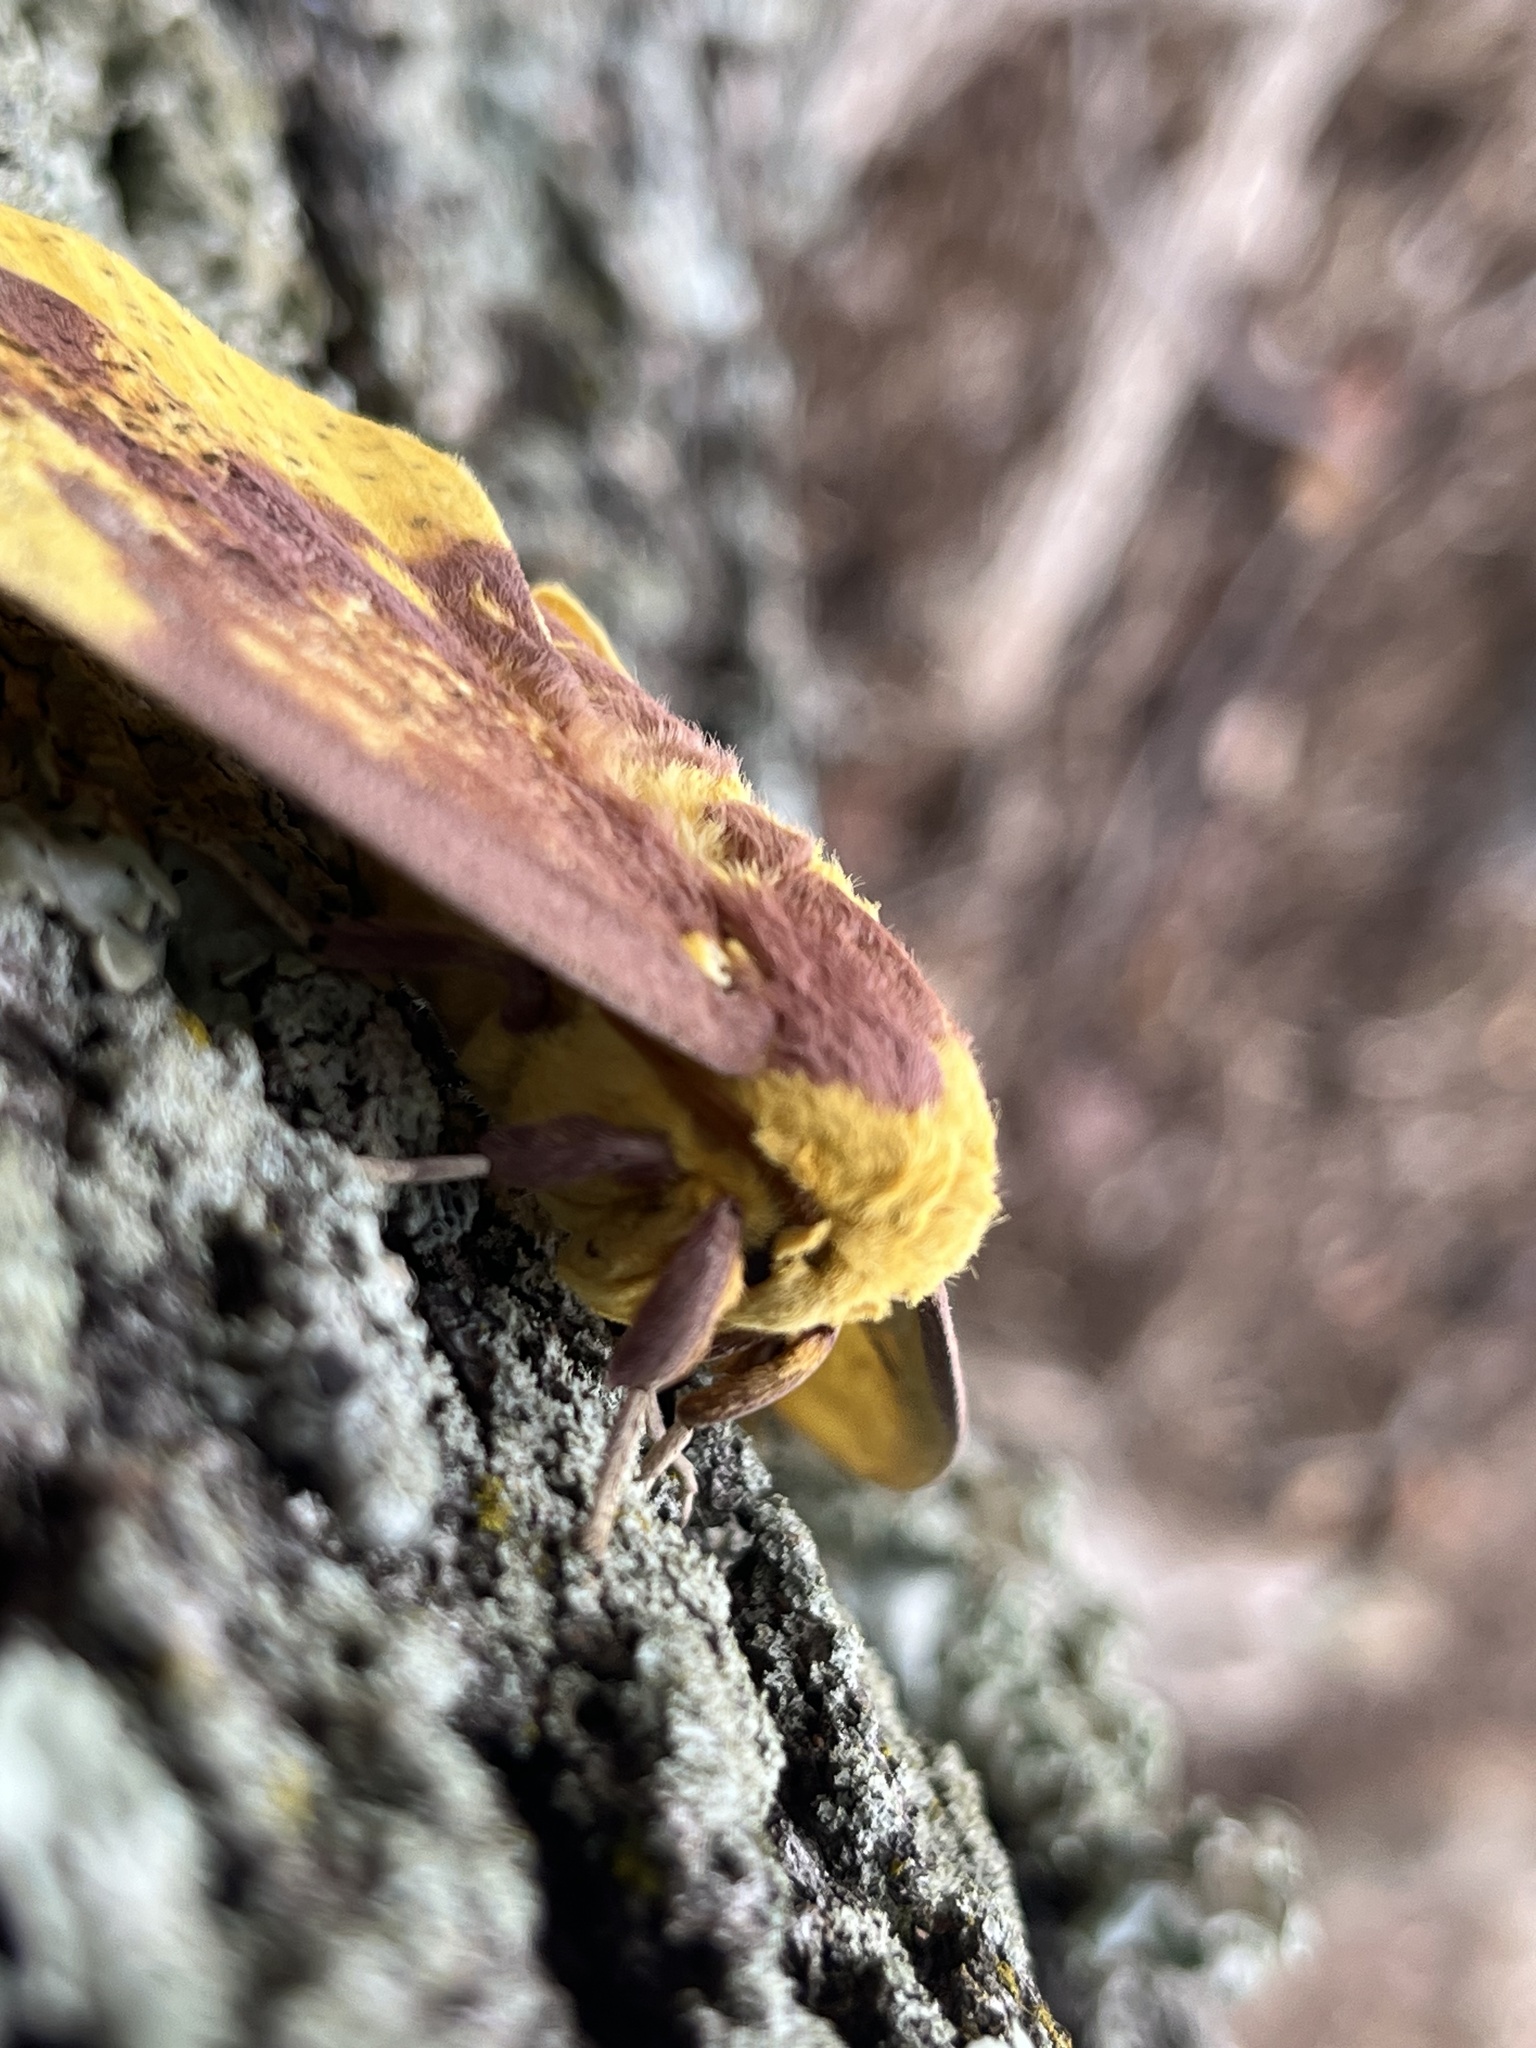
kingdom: Animalia
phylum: Arthropoda
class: Insecta
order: Lepidoptera
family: Saturniidae
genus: Eacles
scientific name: Eacles imperialis
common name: Imperial moth
